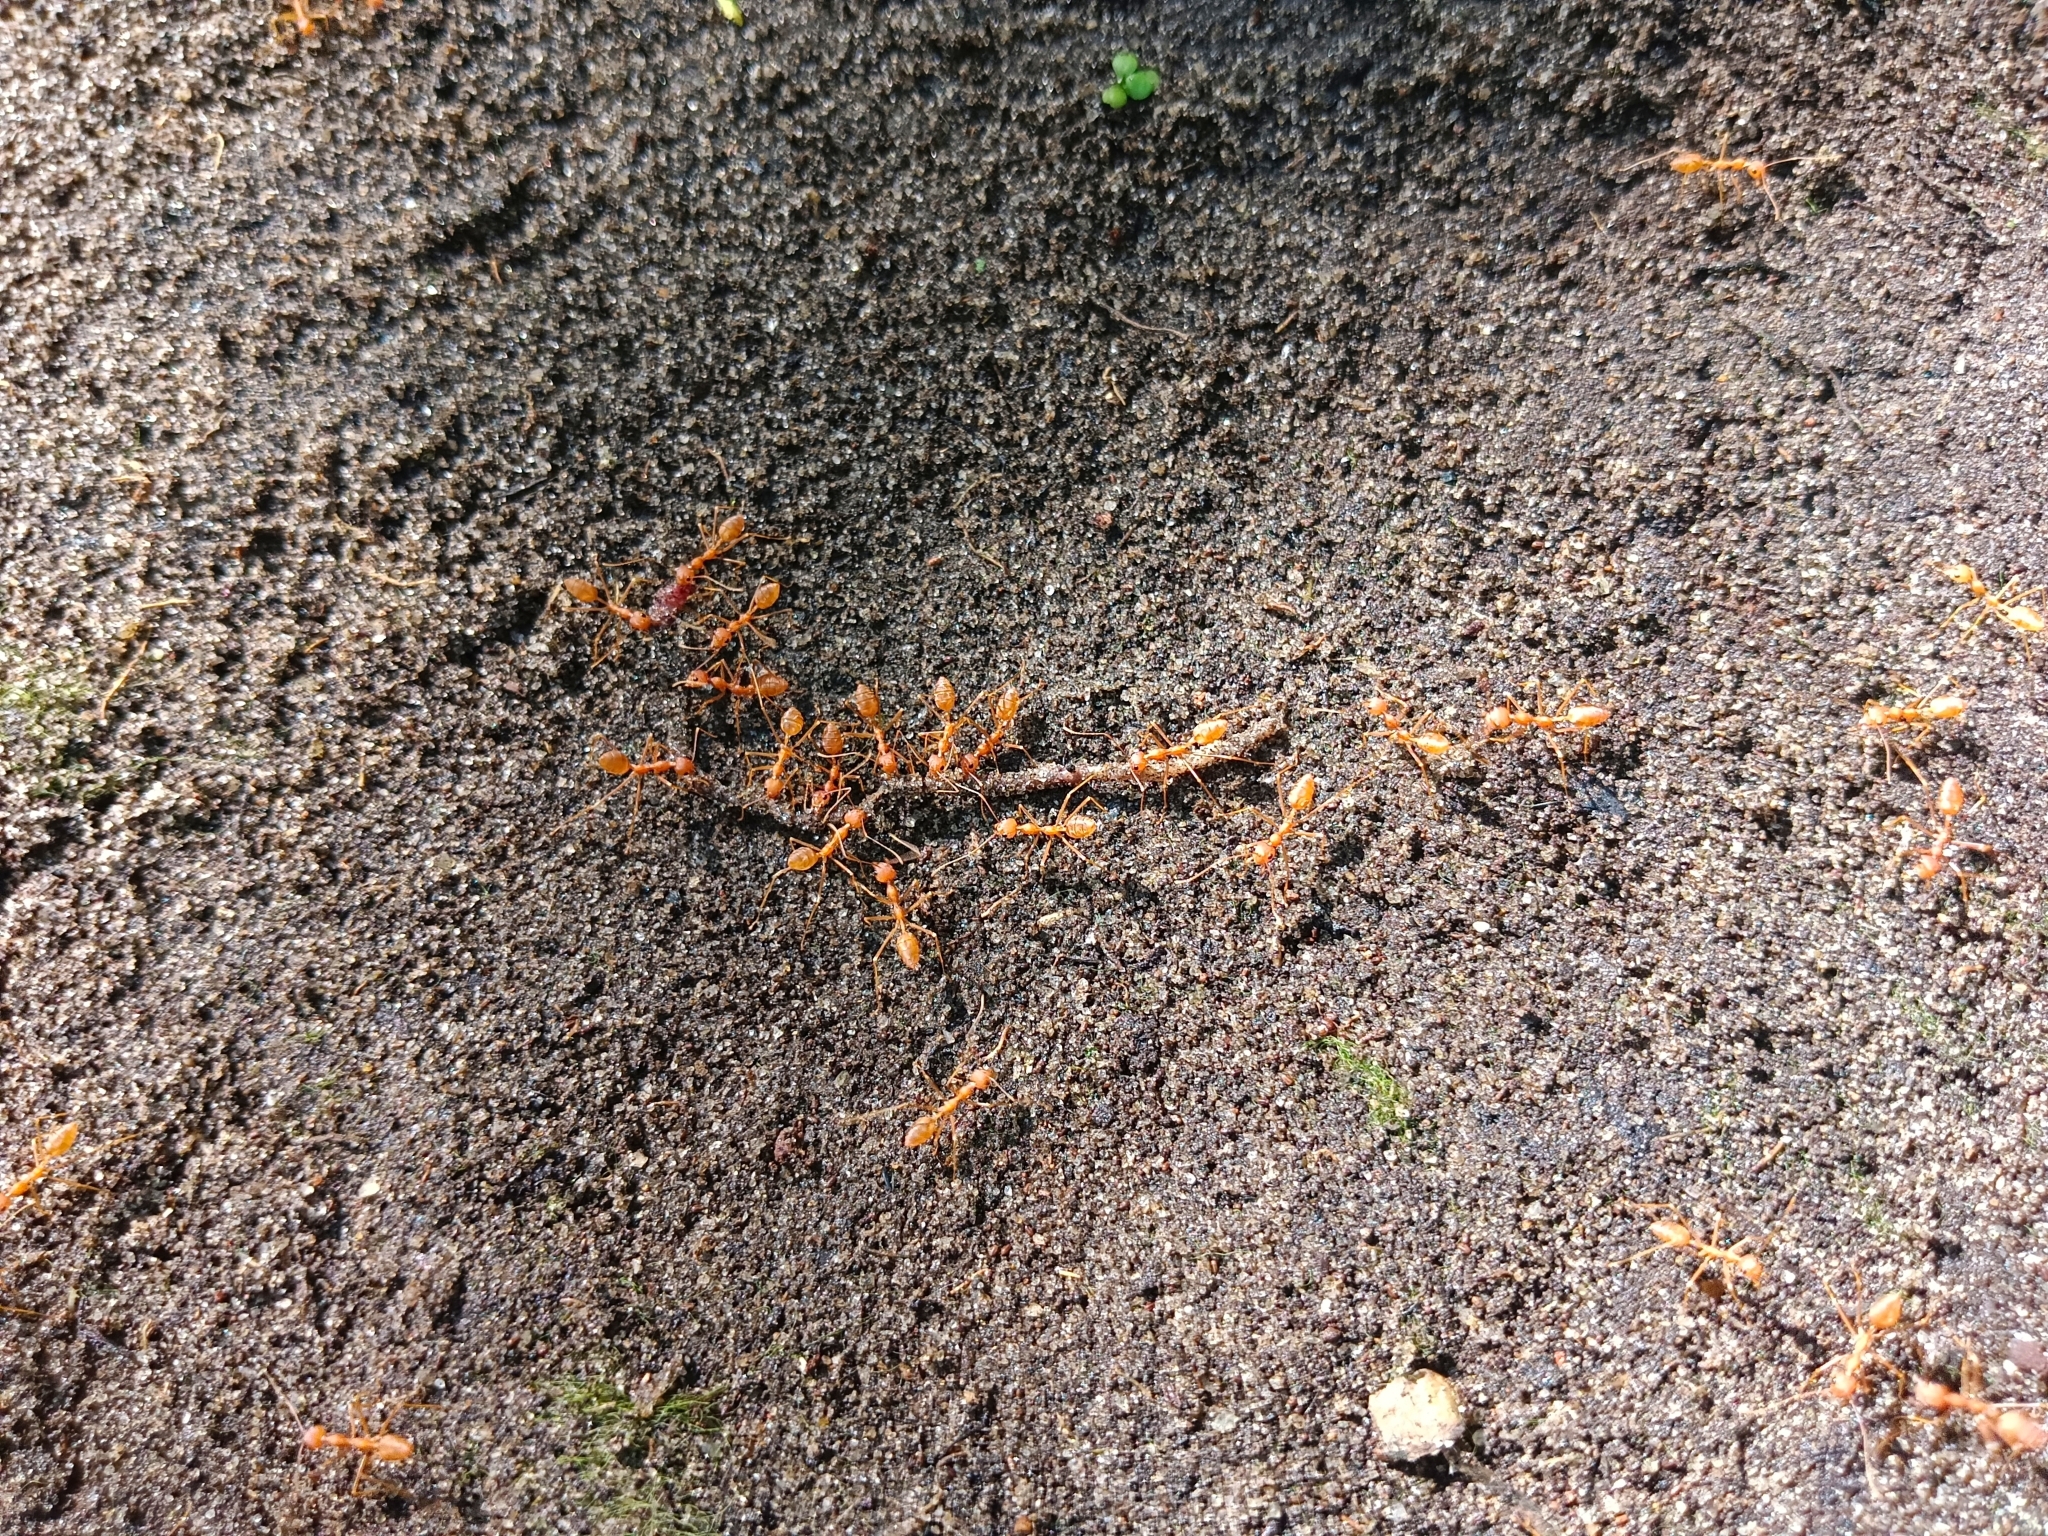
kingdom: Animalia
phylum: Arthropoda
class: Insecta
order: Hymenoptera
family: Formicidae
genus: Oecophylla
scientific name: Oecophylla smaragdina
